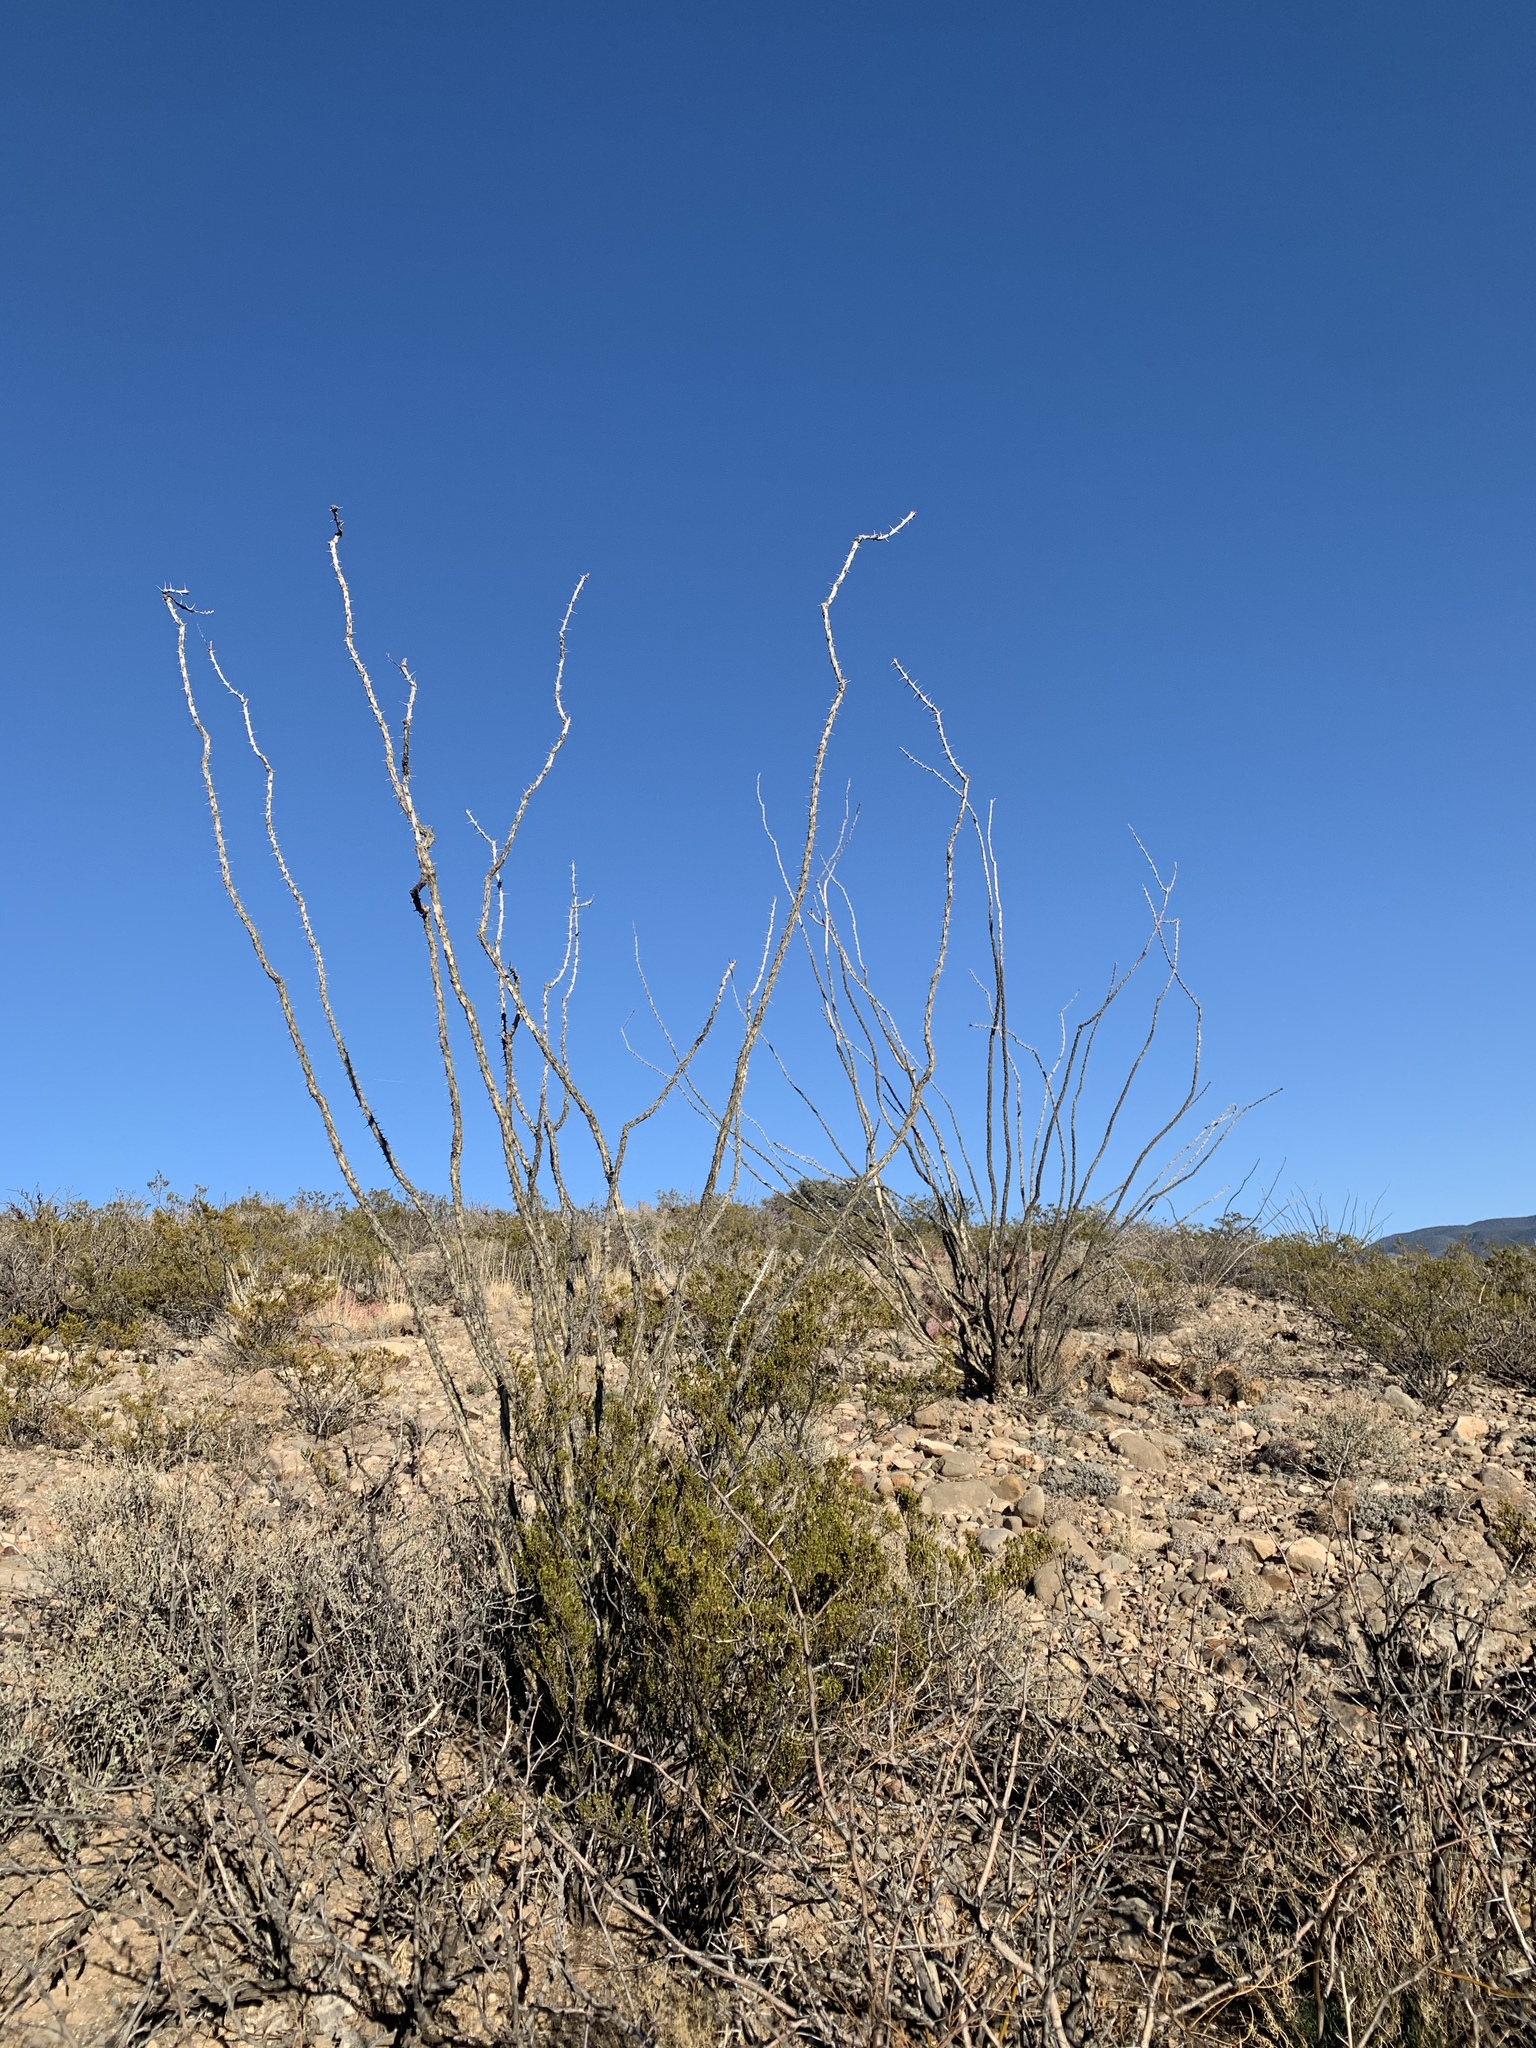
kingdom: Plantae
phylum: Tracheophyta
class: Magnoliopsida
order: Ericales
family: Fouquieriaceae
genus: Fouquieria
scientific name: Fouquieria splendens
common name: Vine-cactus
